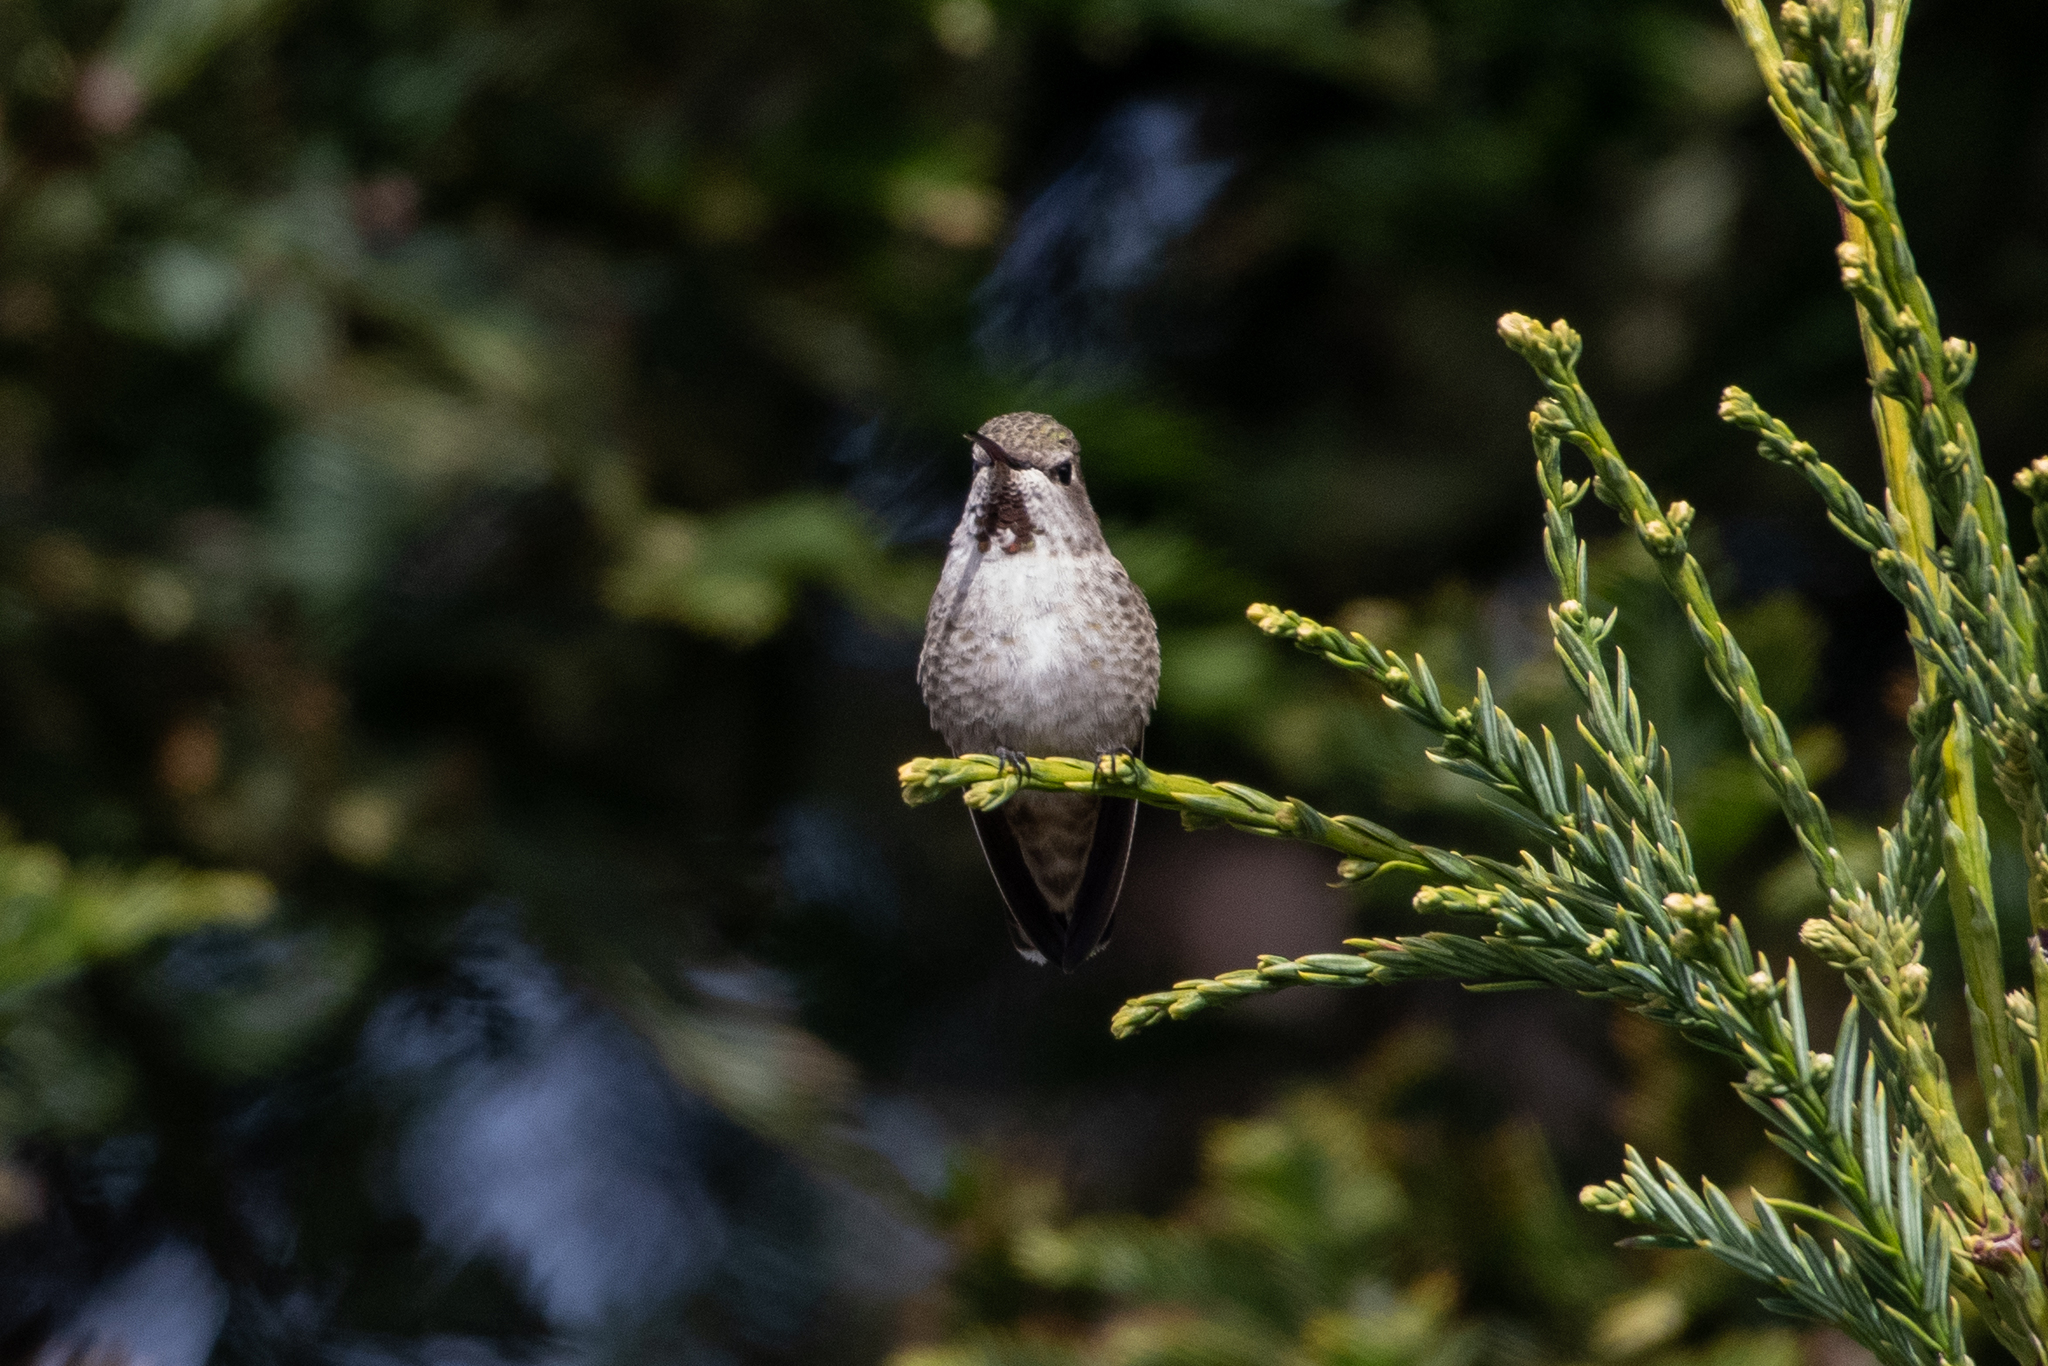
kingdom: Animalia
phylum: Chordata
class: Aves
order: Apodiformes
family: Trochilidae
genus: Calypte
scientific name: Calypte anna
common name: Anna's hummingbird
